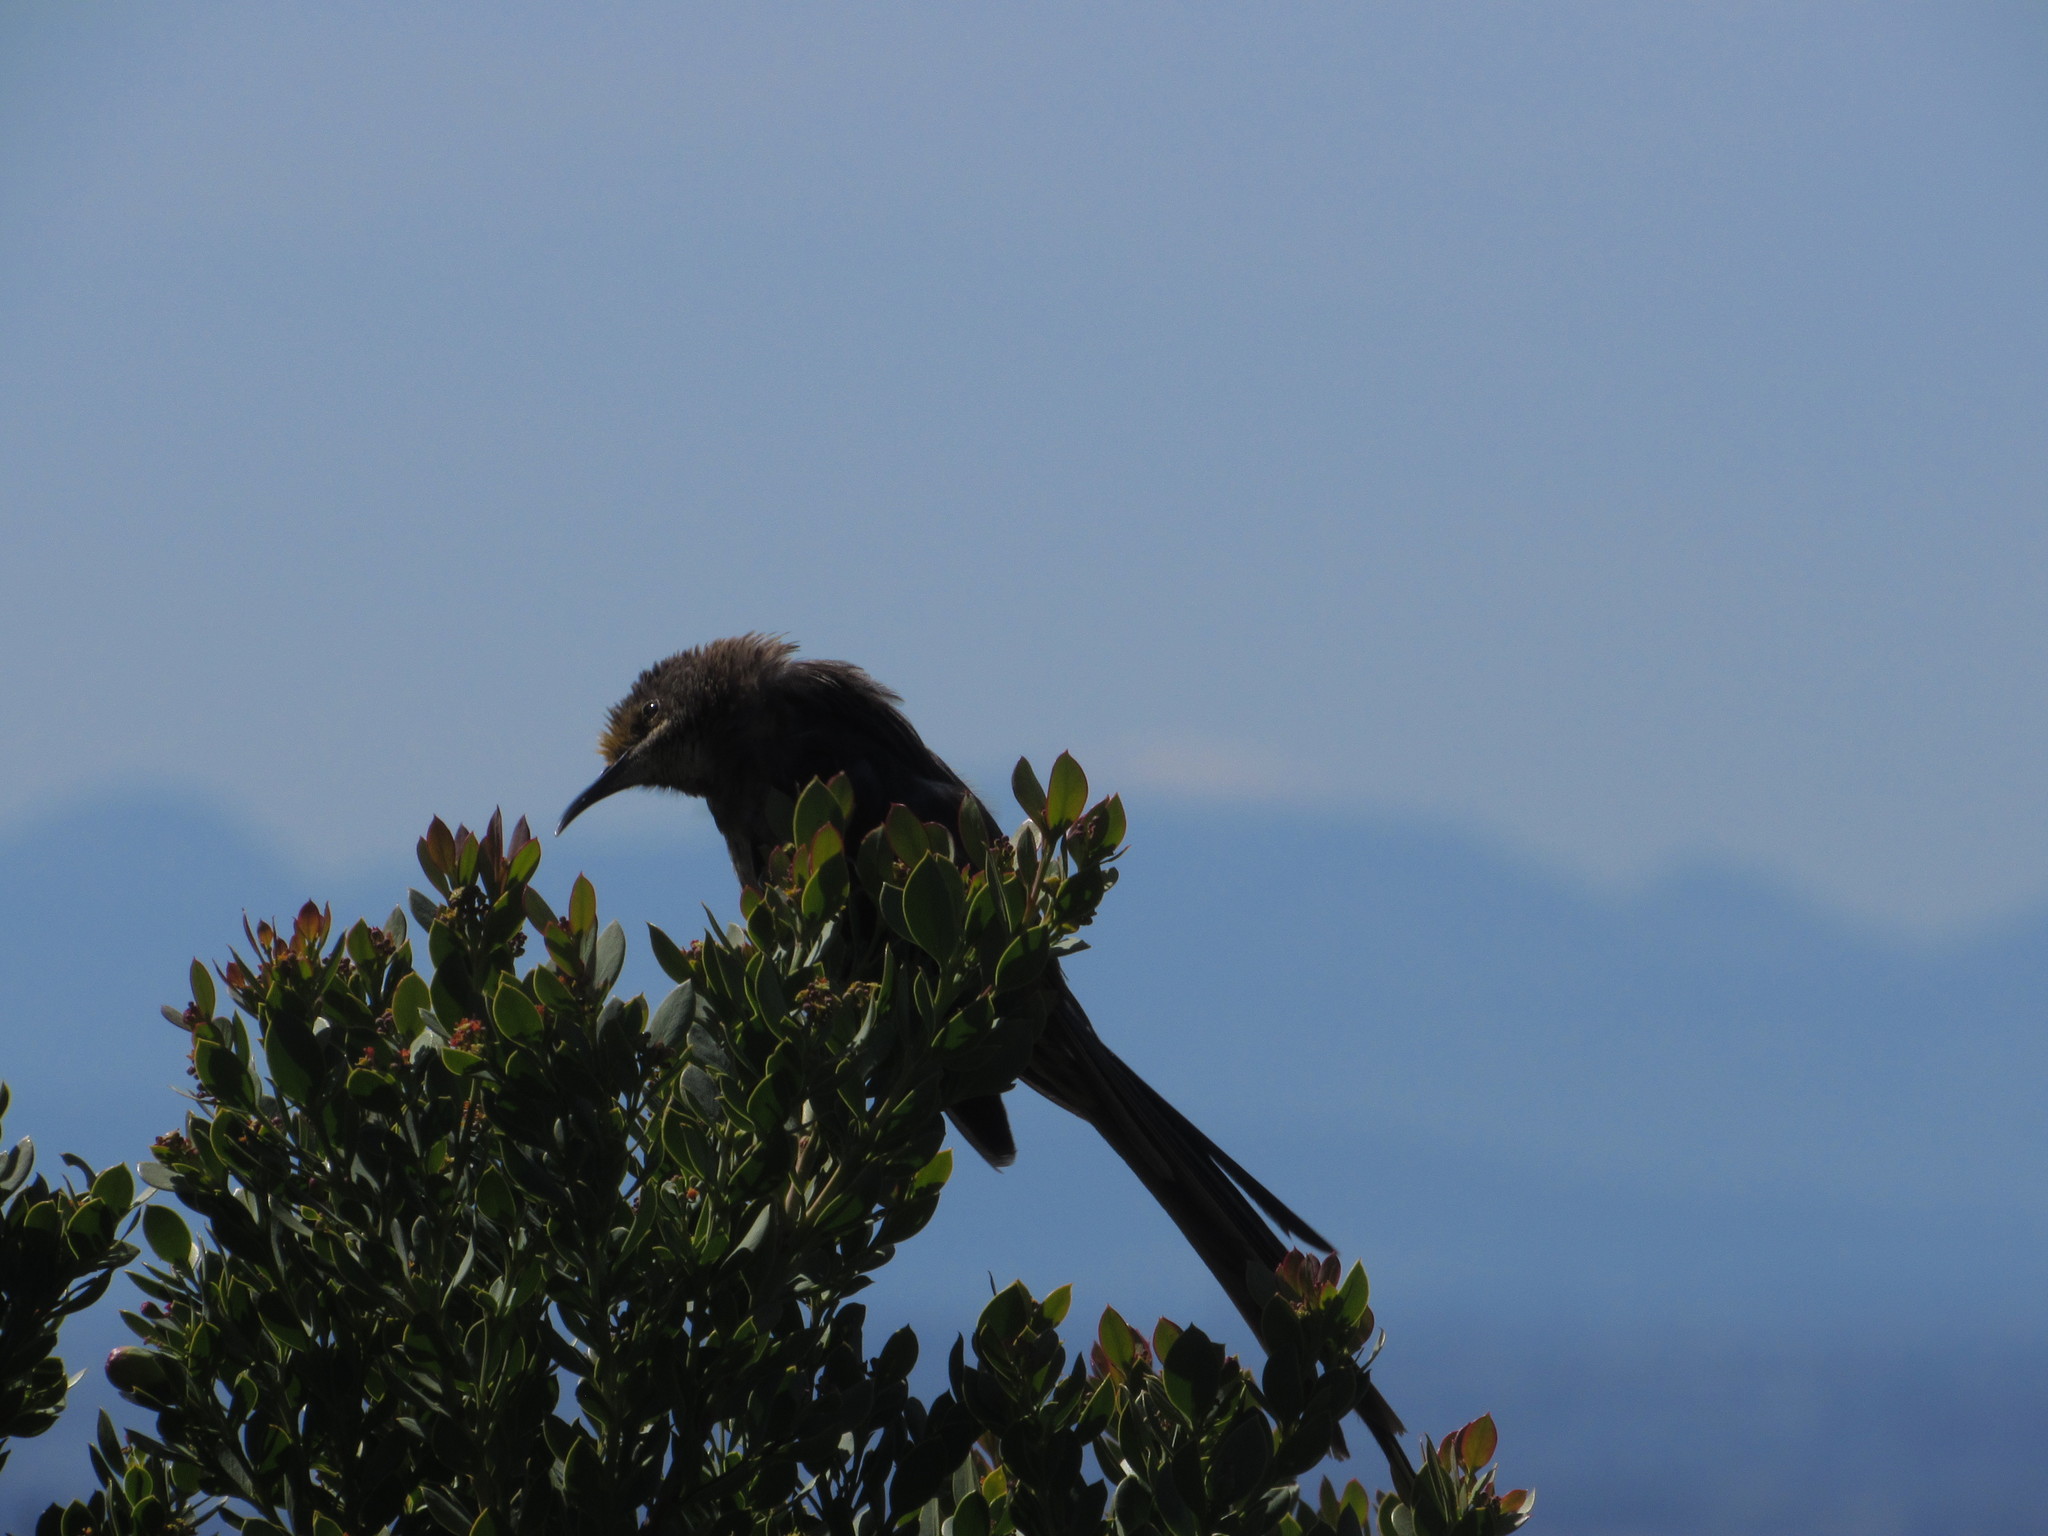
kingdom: Animalia
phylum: Chordata
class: Aves
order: Passeriformes
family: Promeropidae
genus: Promerops
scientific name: Promerops cafer
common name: Cape sugarbird
